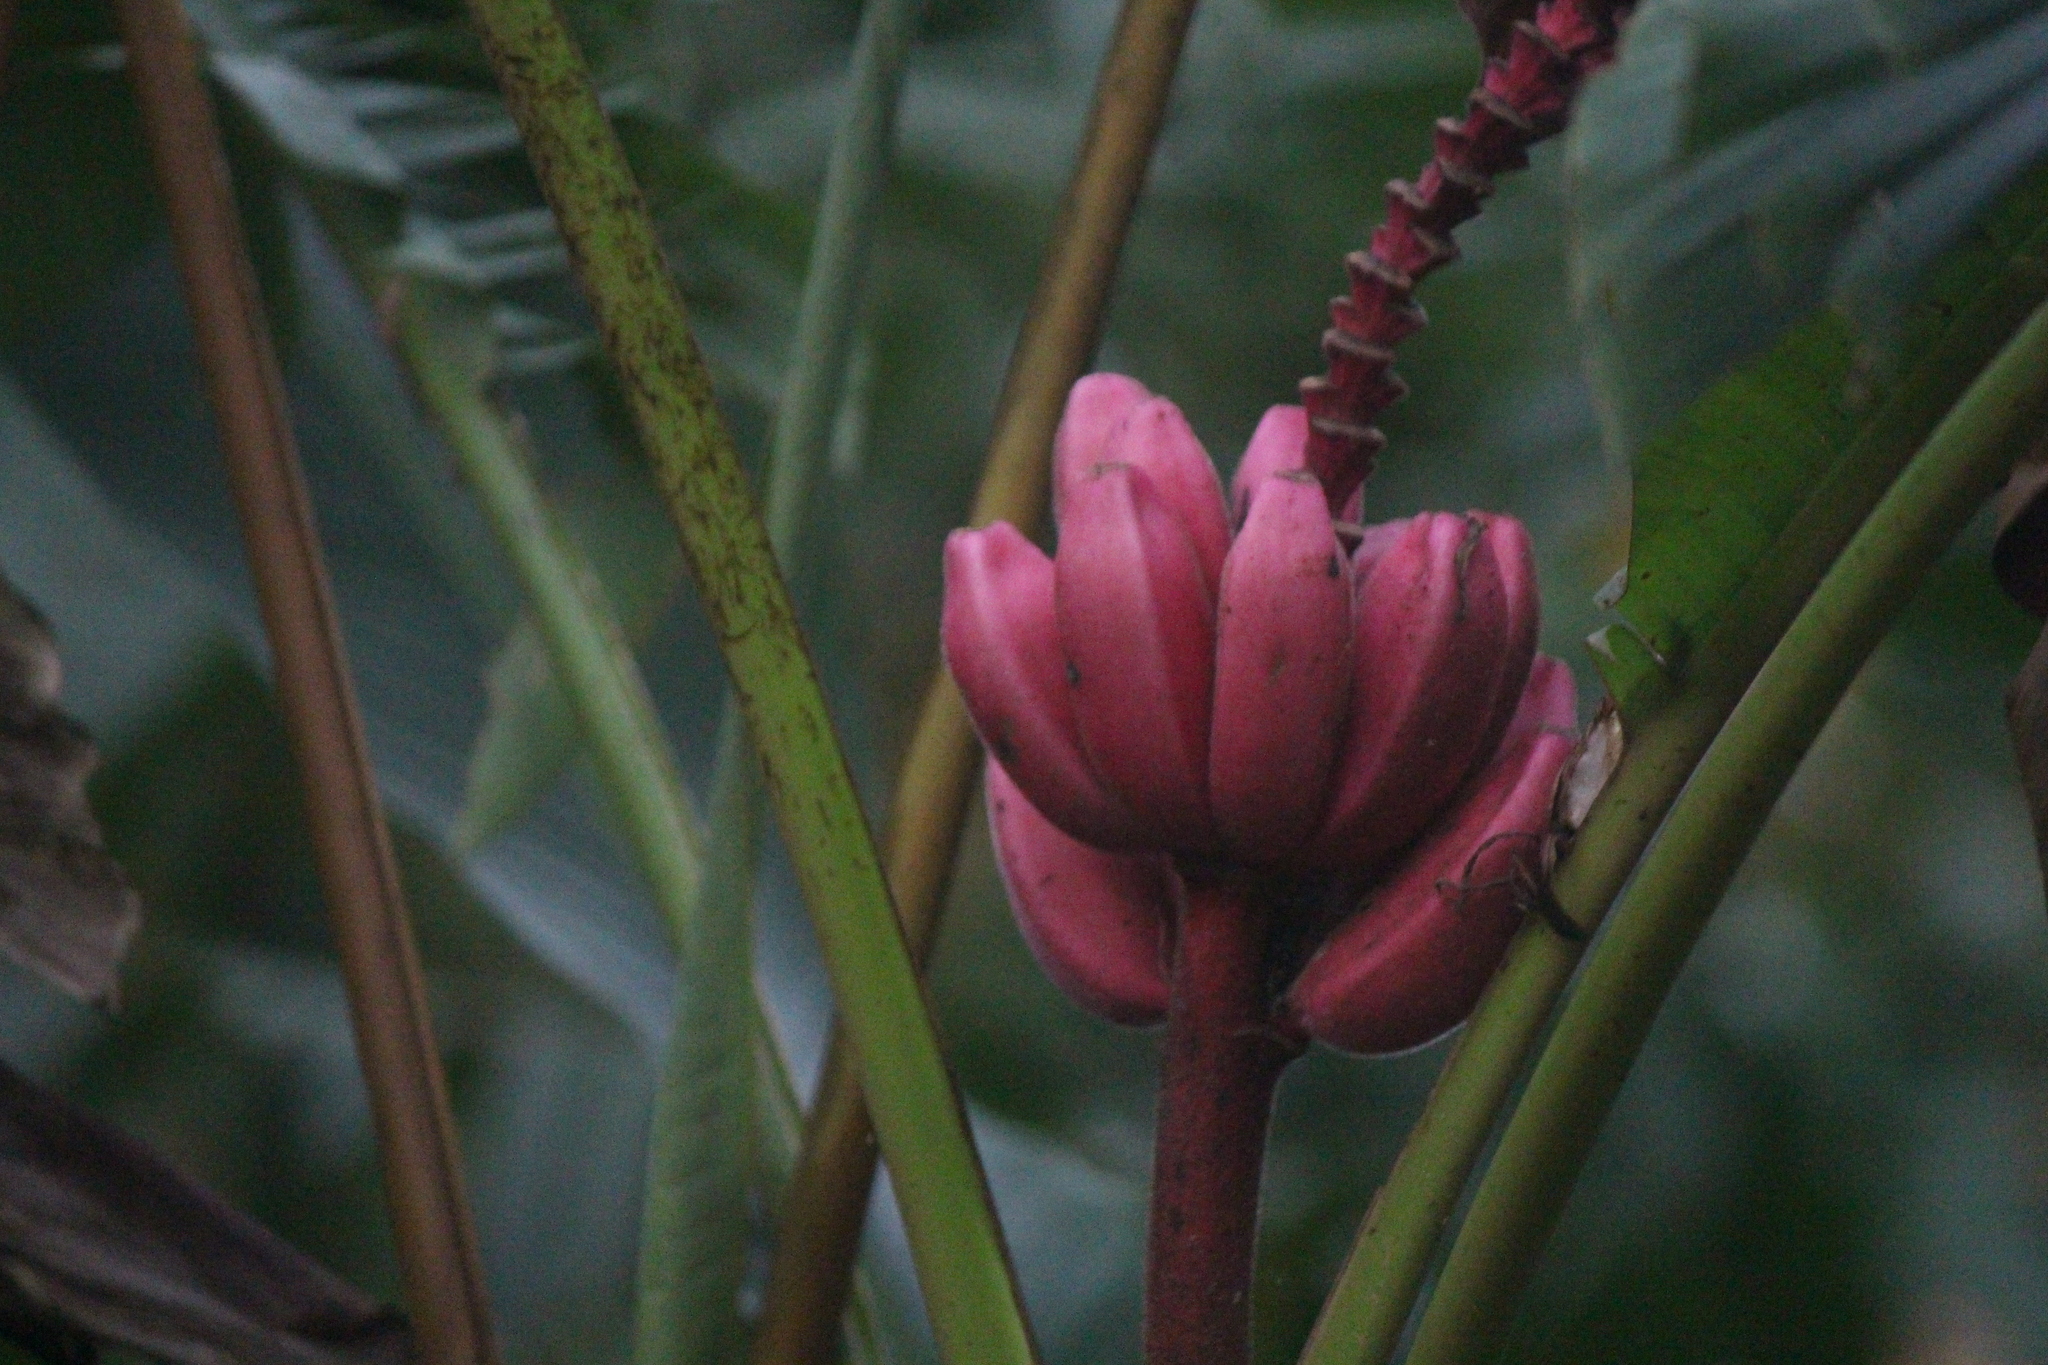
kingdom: Plantae
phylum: Tracheophyta
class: Liliopsida
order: Zingiberales
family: Musaceae
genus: Musa
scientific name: Musa velutina
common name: Pink velvet banana
